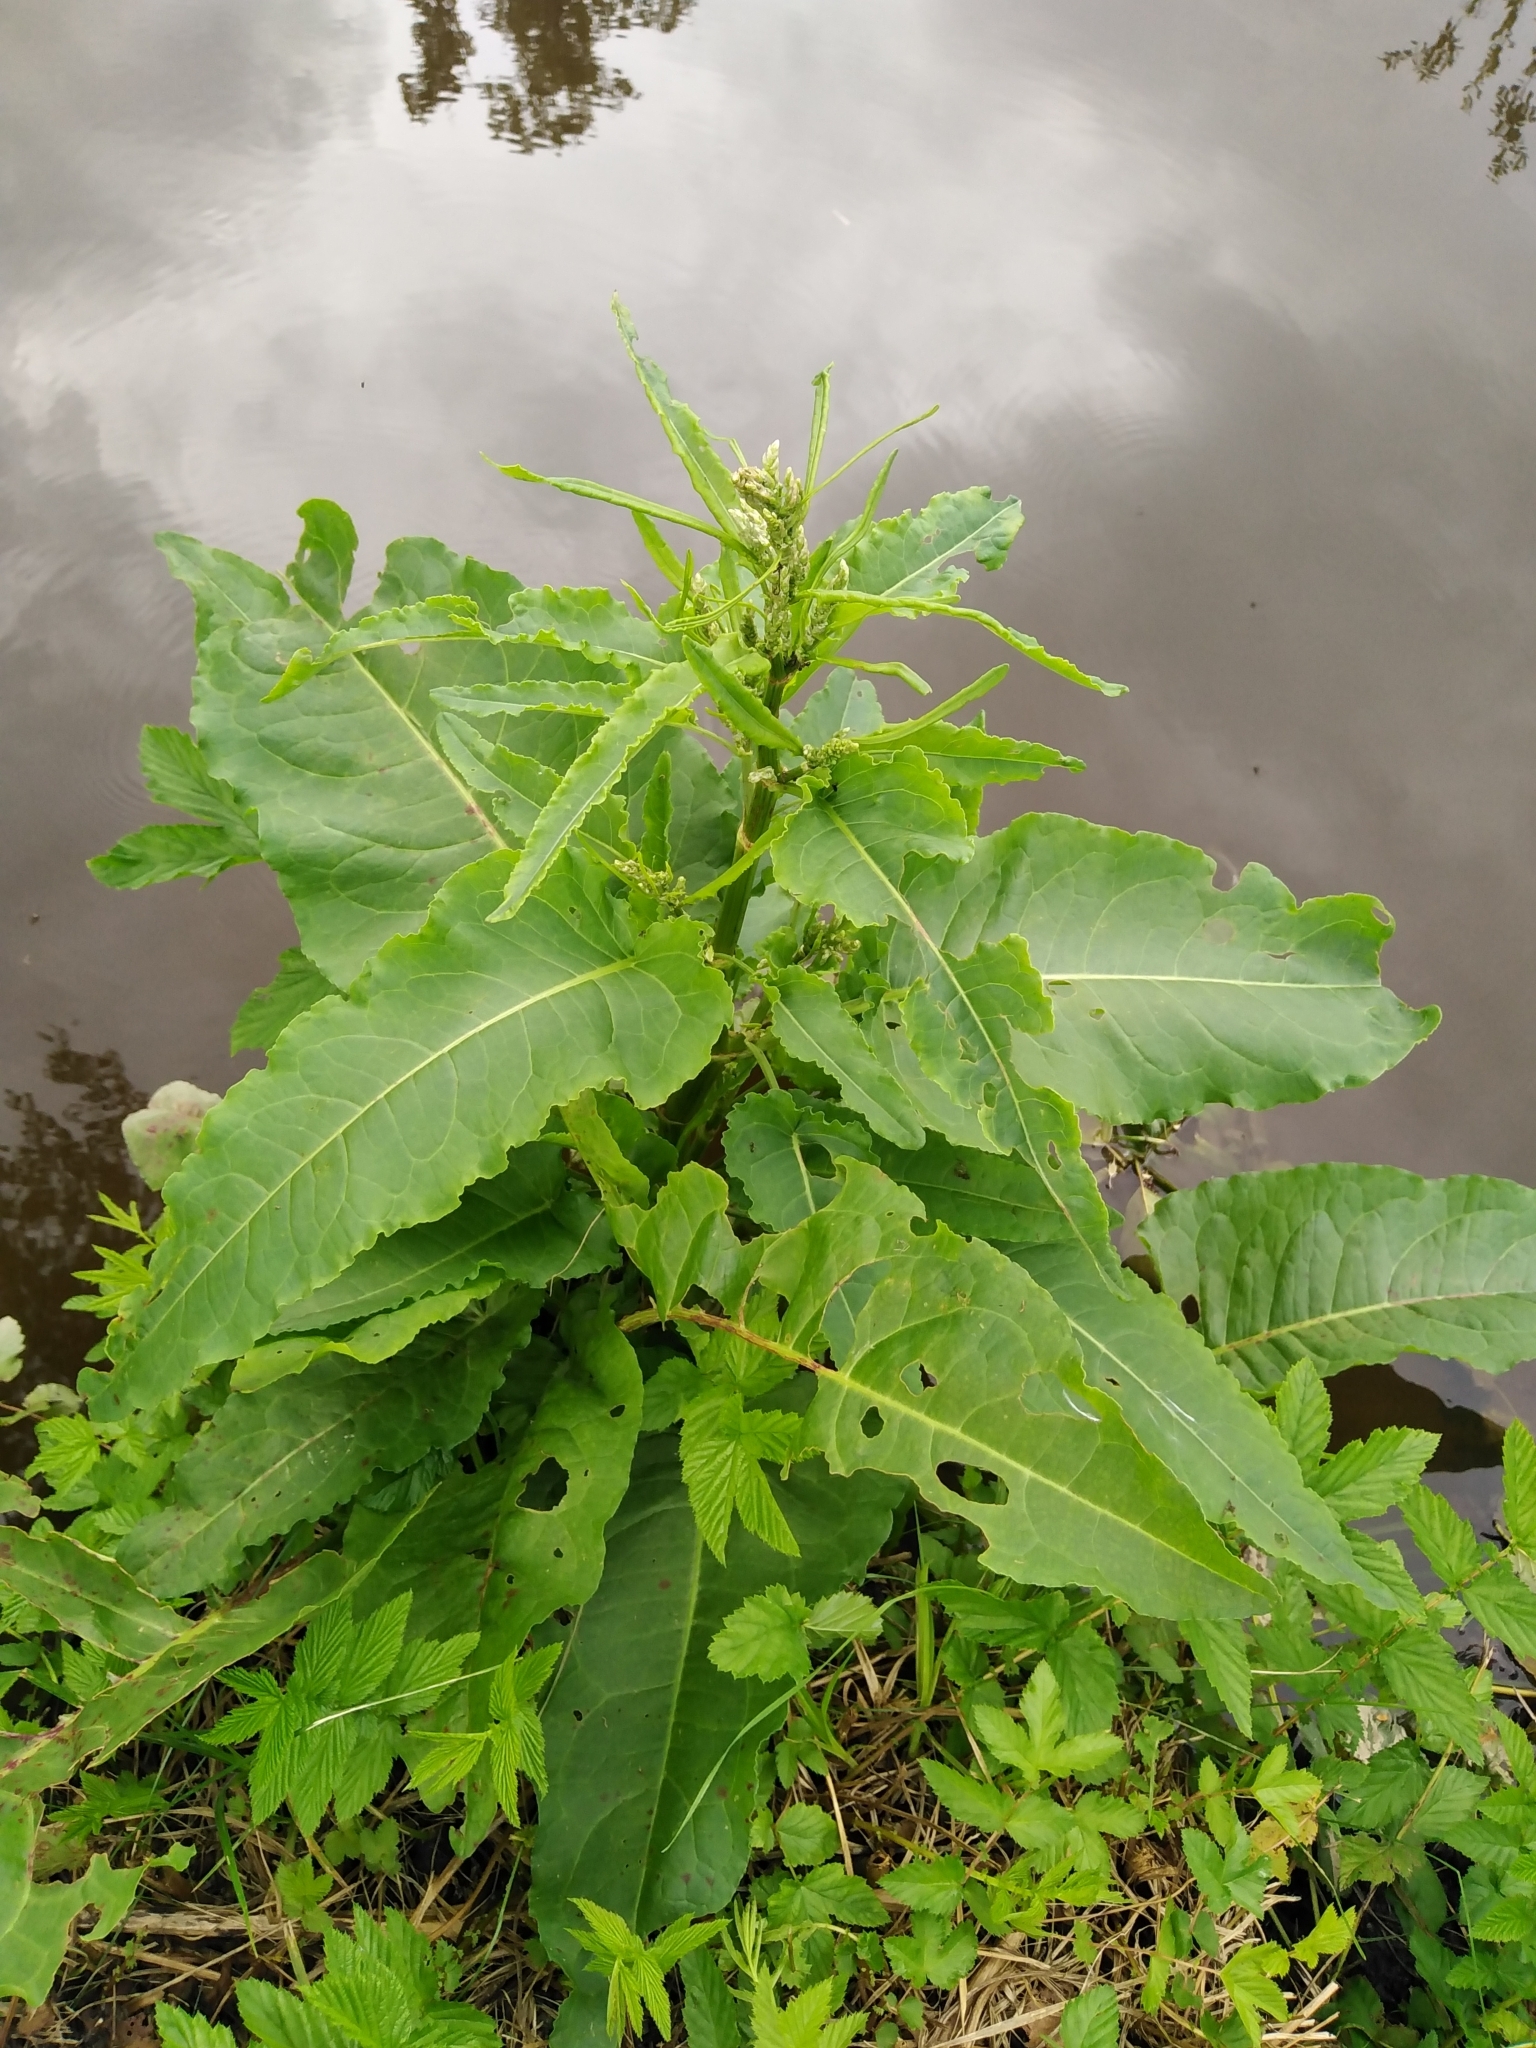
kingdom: Plantae
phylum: Tracheophyta
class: Magnoliopsida
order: Caryophyllales
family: Polygonaceae
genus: Rumex
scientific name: Rumex aquaticus
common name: Scottish dock
